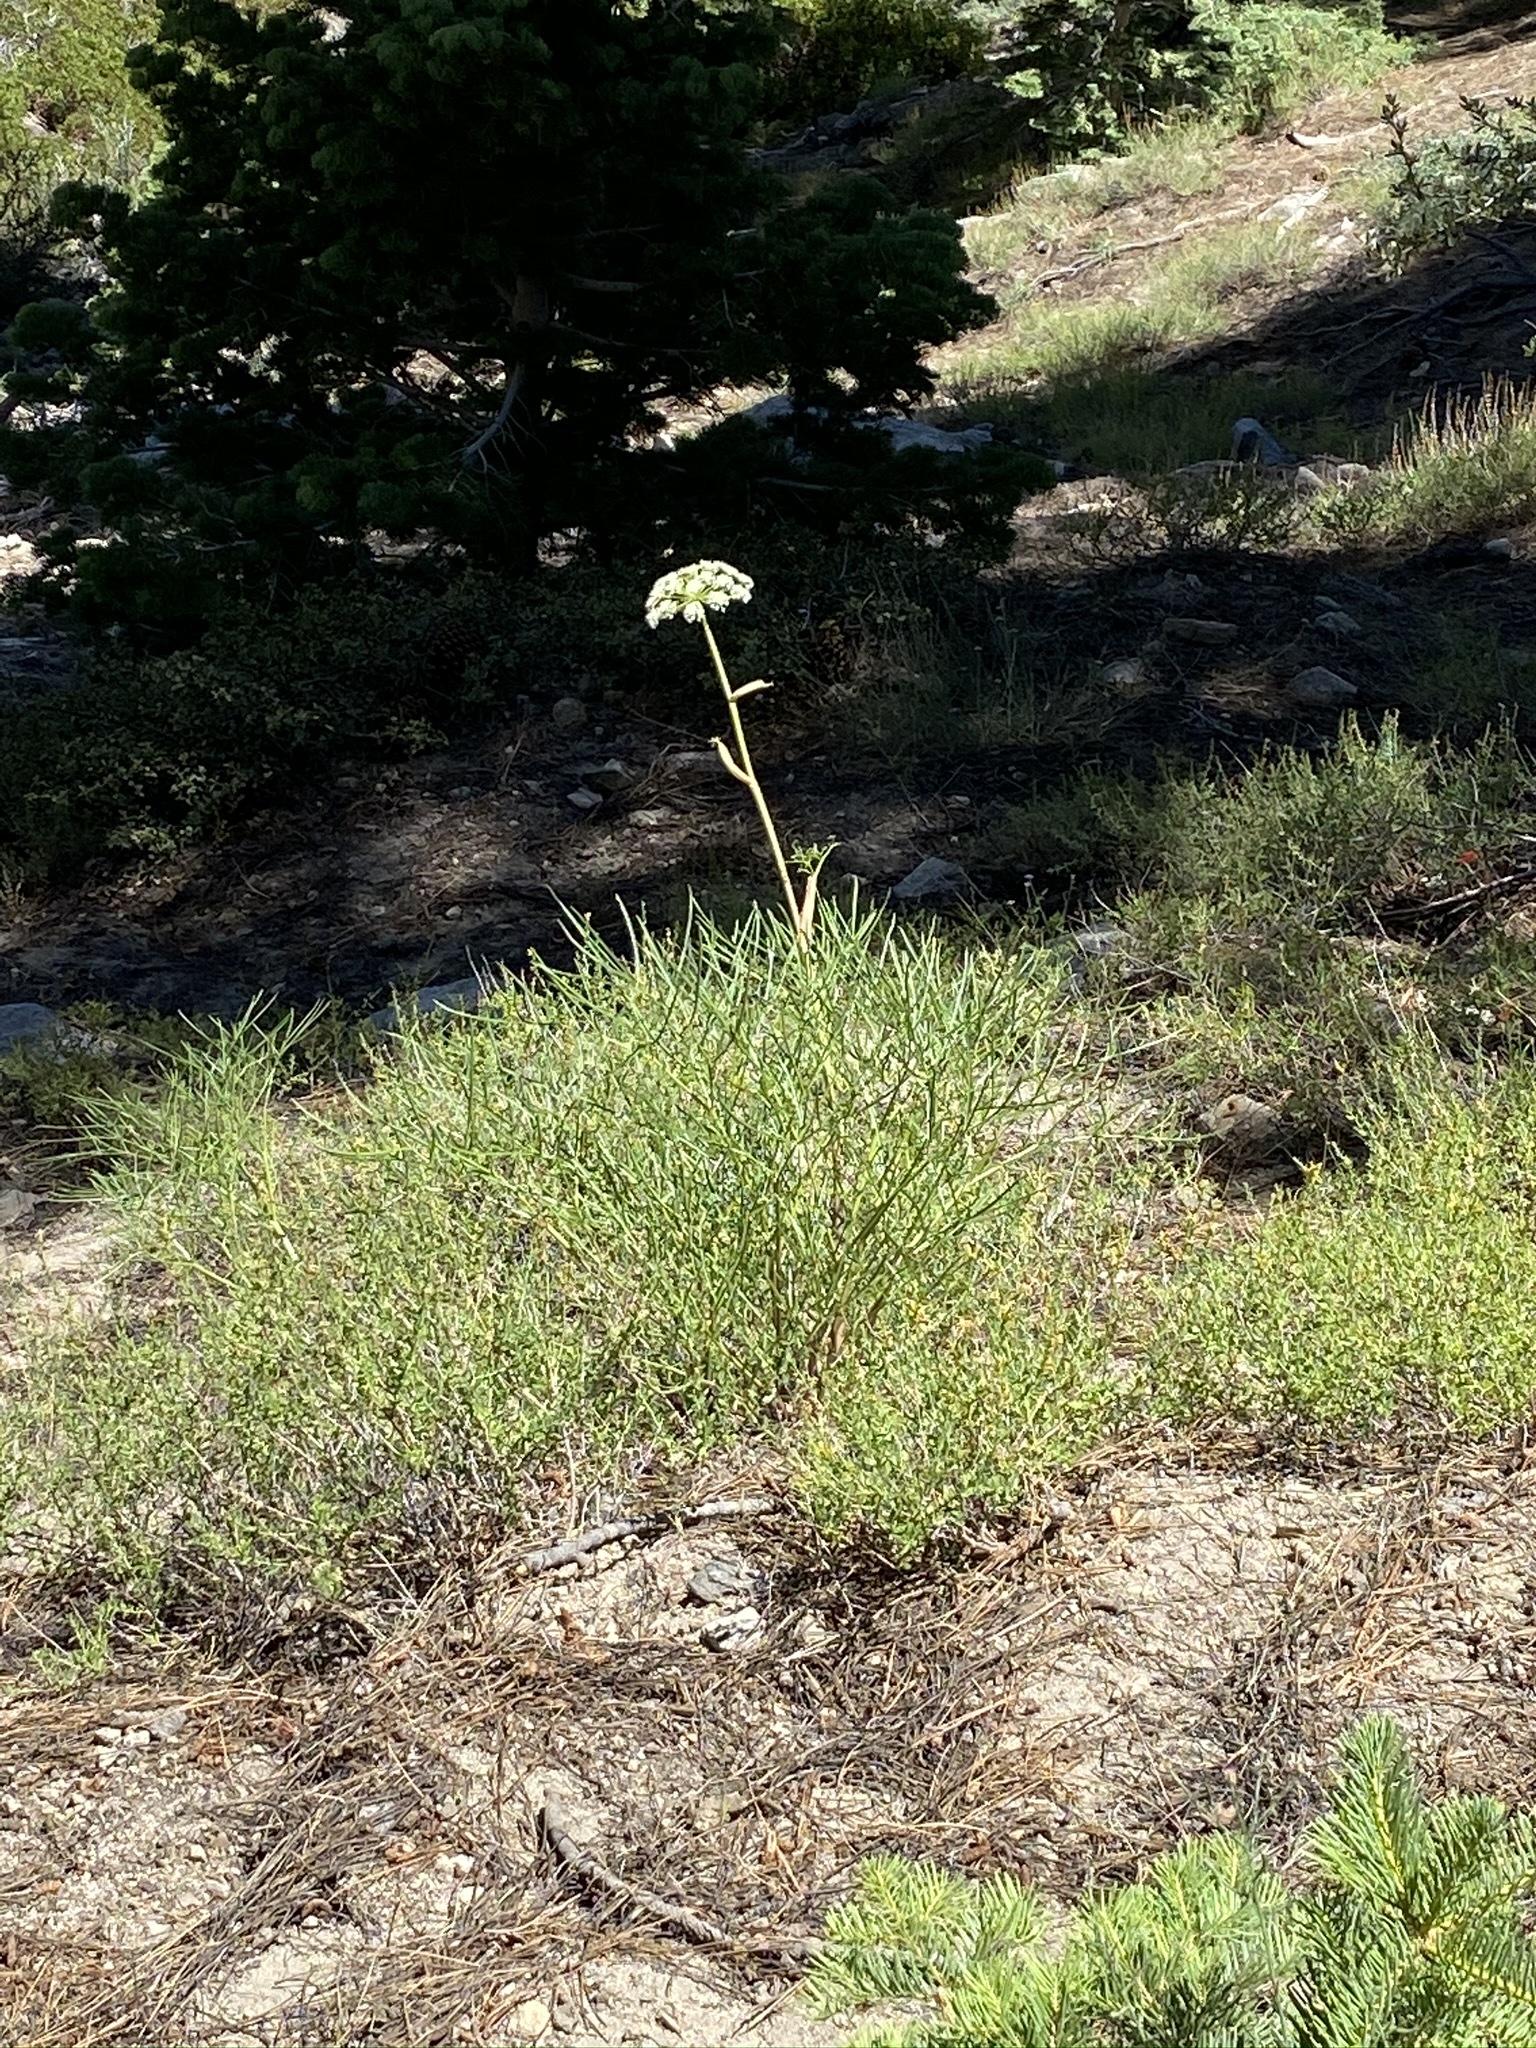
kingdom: Plantae
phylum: Tracheophyta
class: Magnoliopsida
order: Apiales
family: Apiaceae
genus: Angelica
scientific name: Angelica lineariloba
